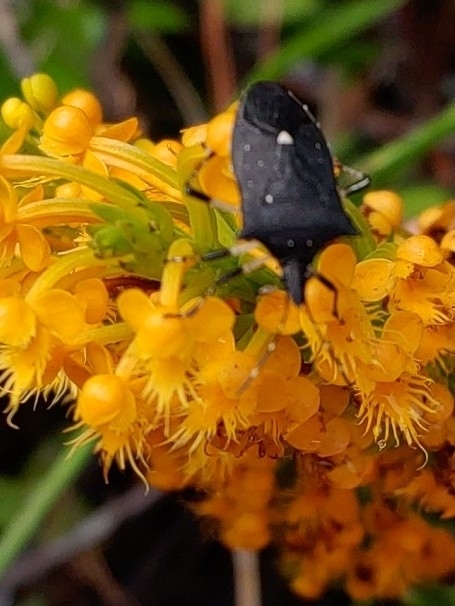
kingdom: Animalia
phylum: Arthropoda
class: Insecta
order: Hemiptera
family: Pentatomidae
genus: Proxys
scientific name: Proxys punctulatus
